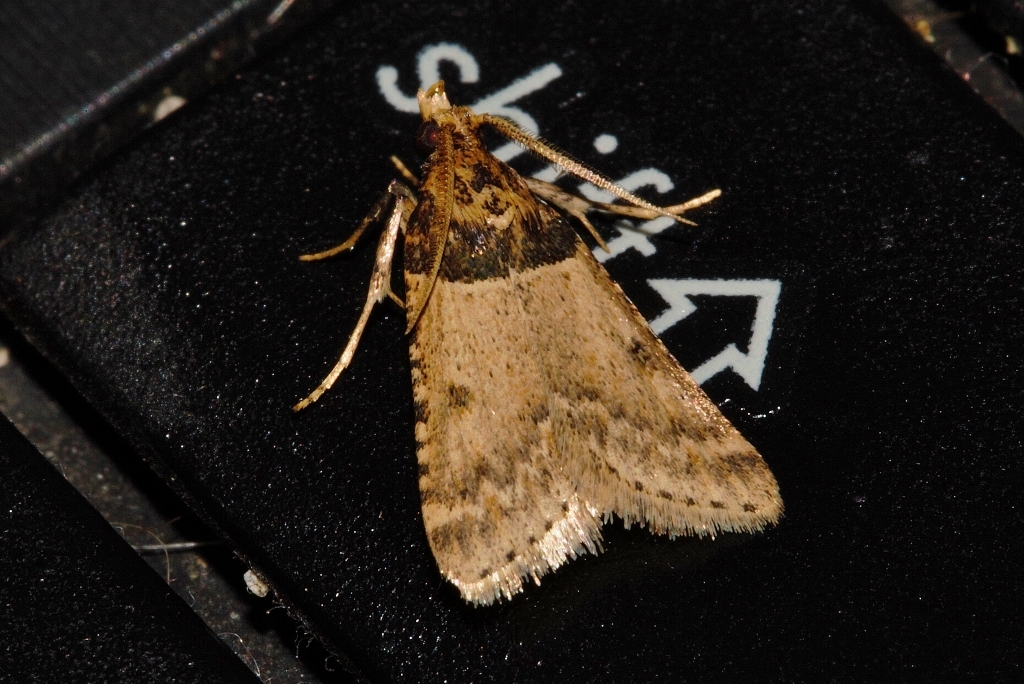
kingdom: Animalia
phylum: Arthropoda
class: Insecta
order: Lepidoptera
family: Pyralidae
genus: Philotis
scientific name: Philotis basalis
